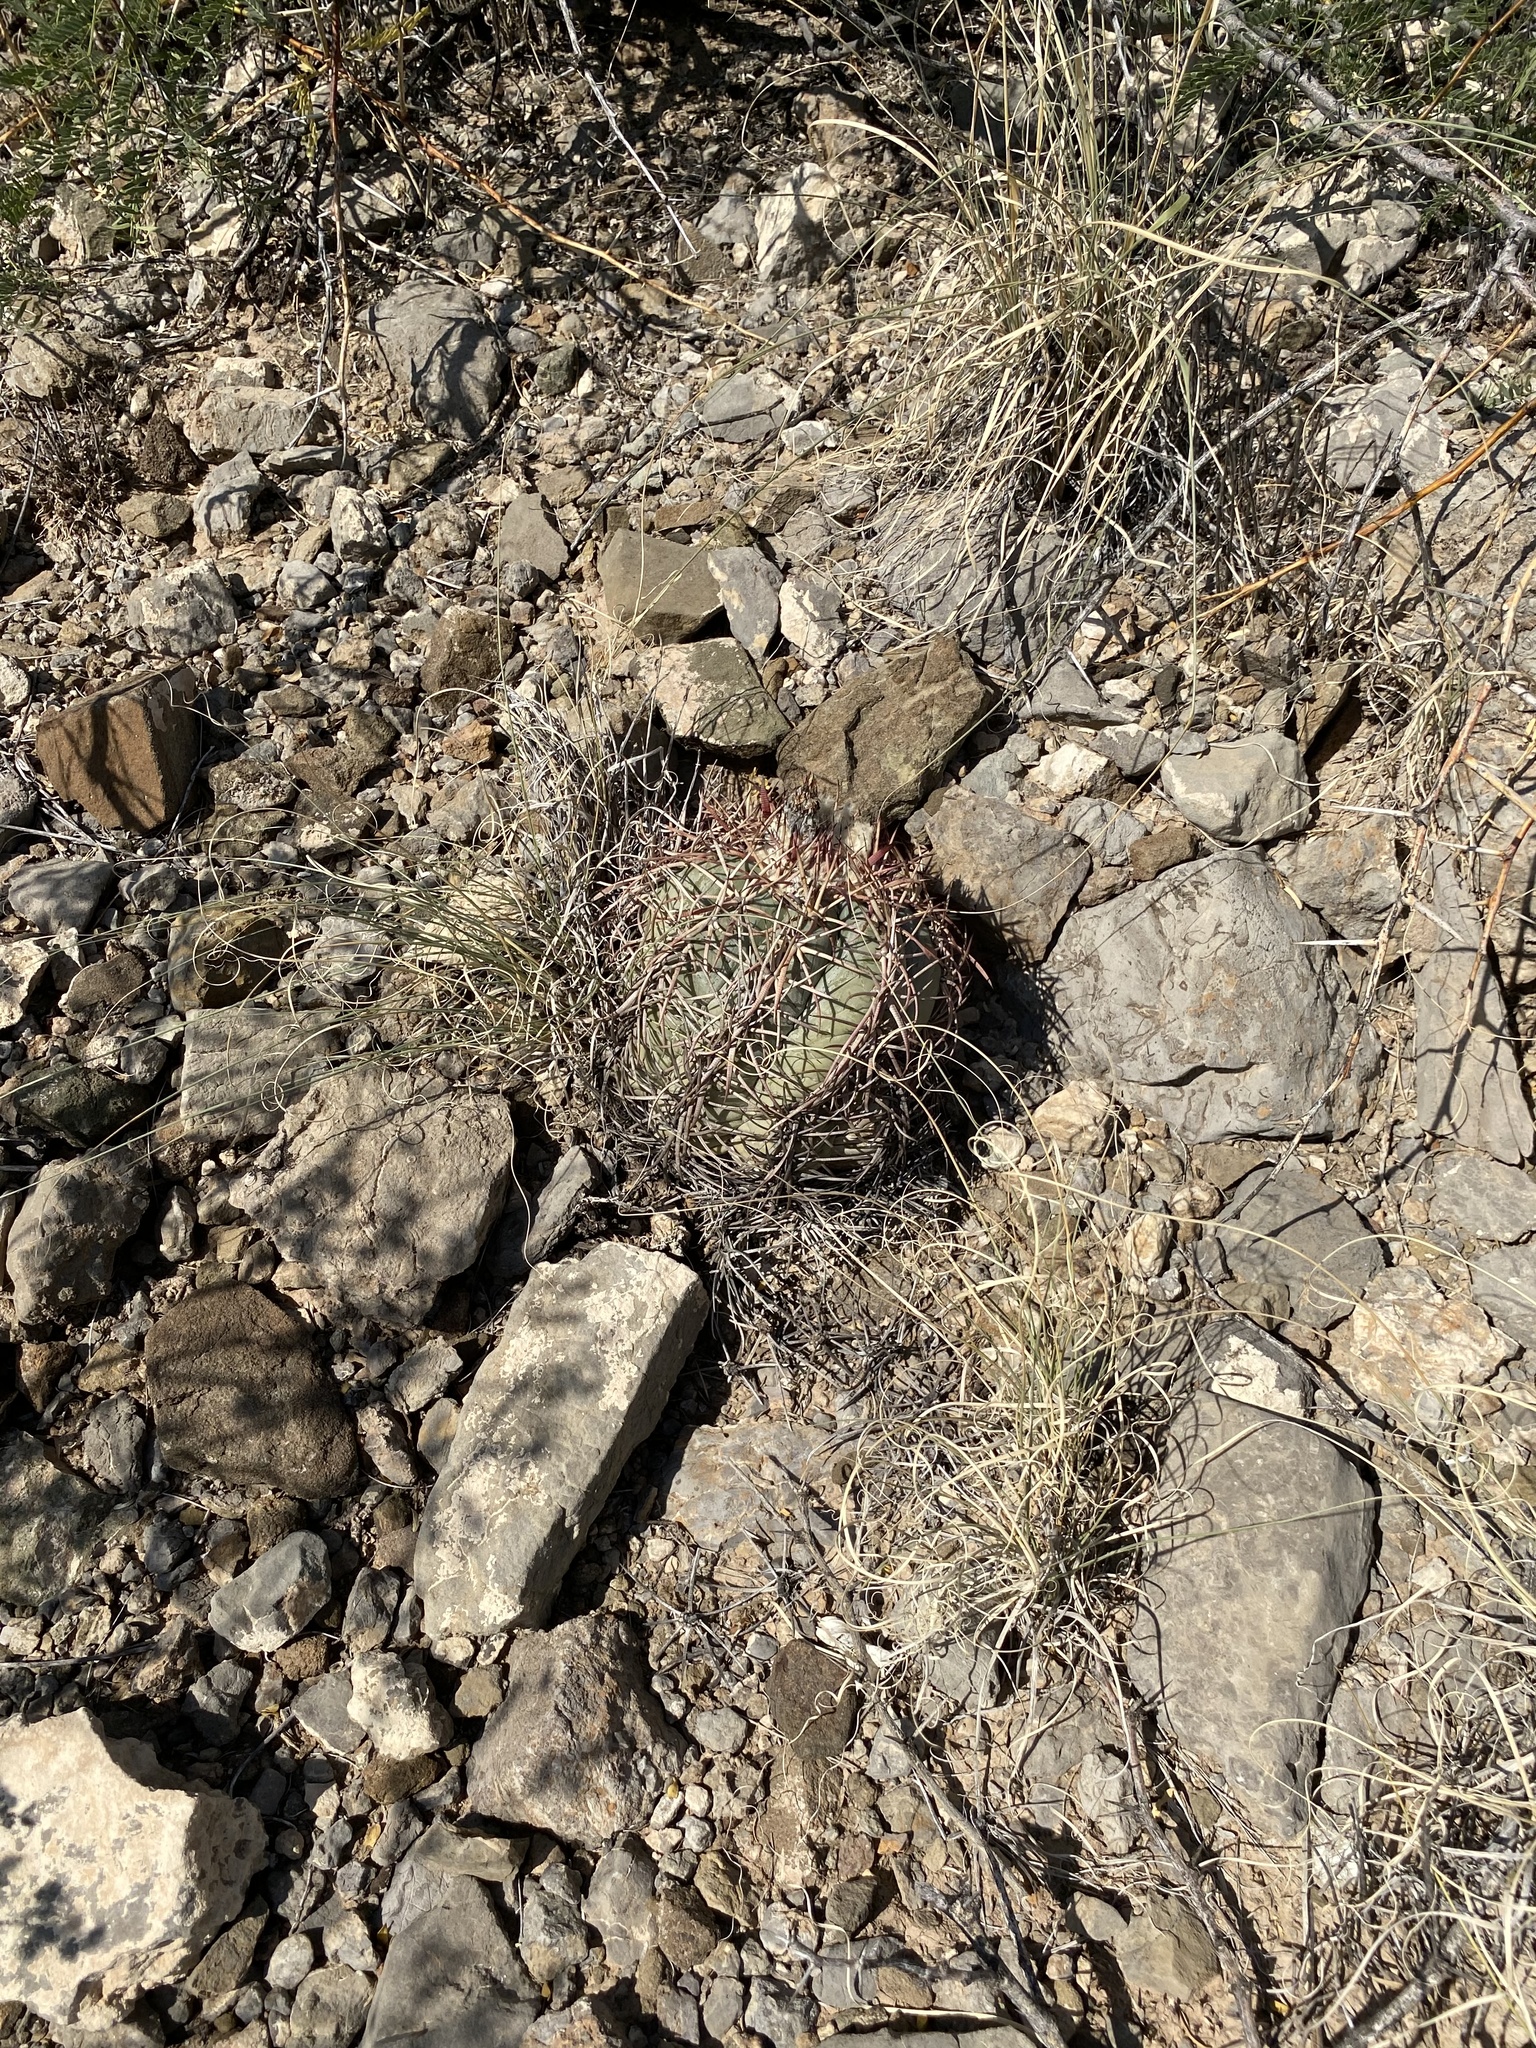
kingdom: Plantae
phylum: Tracheophyta
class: Magnoliopsida
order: Caryophyllales
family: Cactaceae
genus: Echinocactus
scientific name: Echinocactus horizonthalonius
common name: Devilshead
